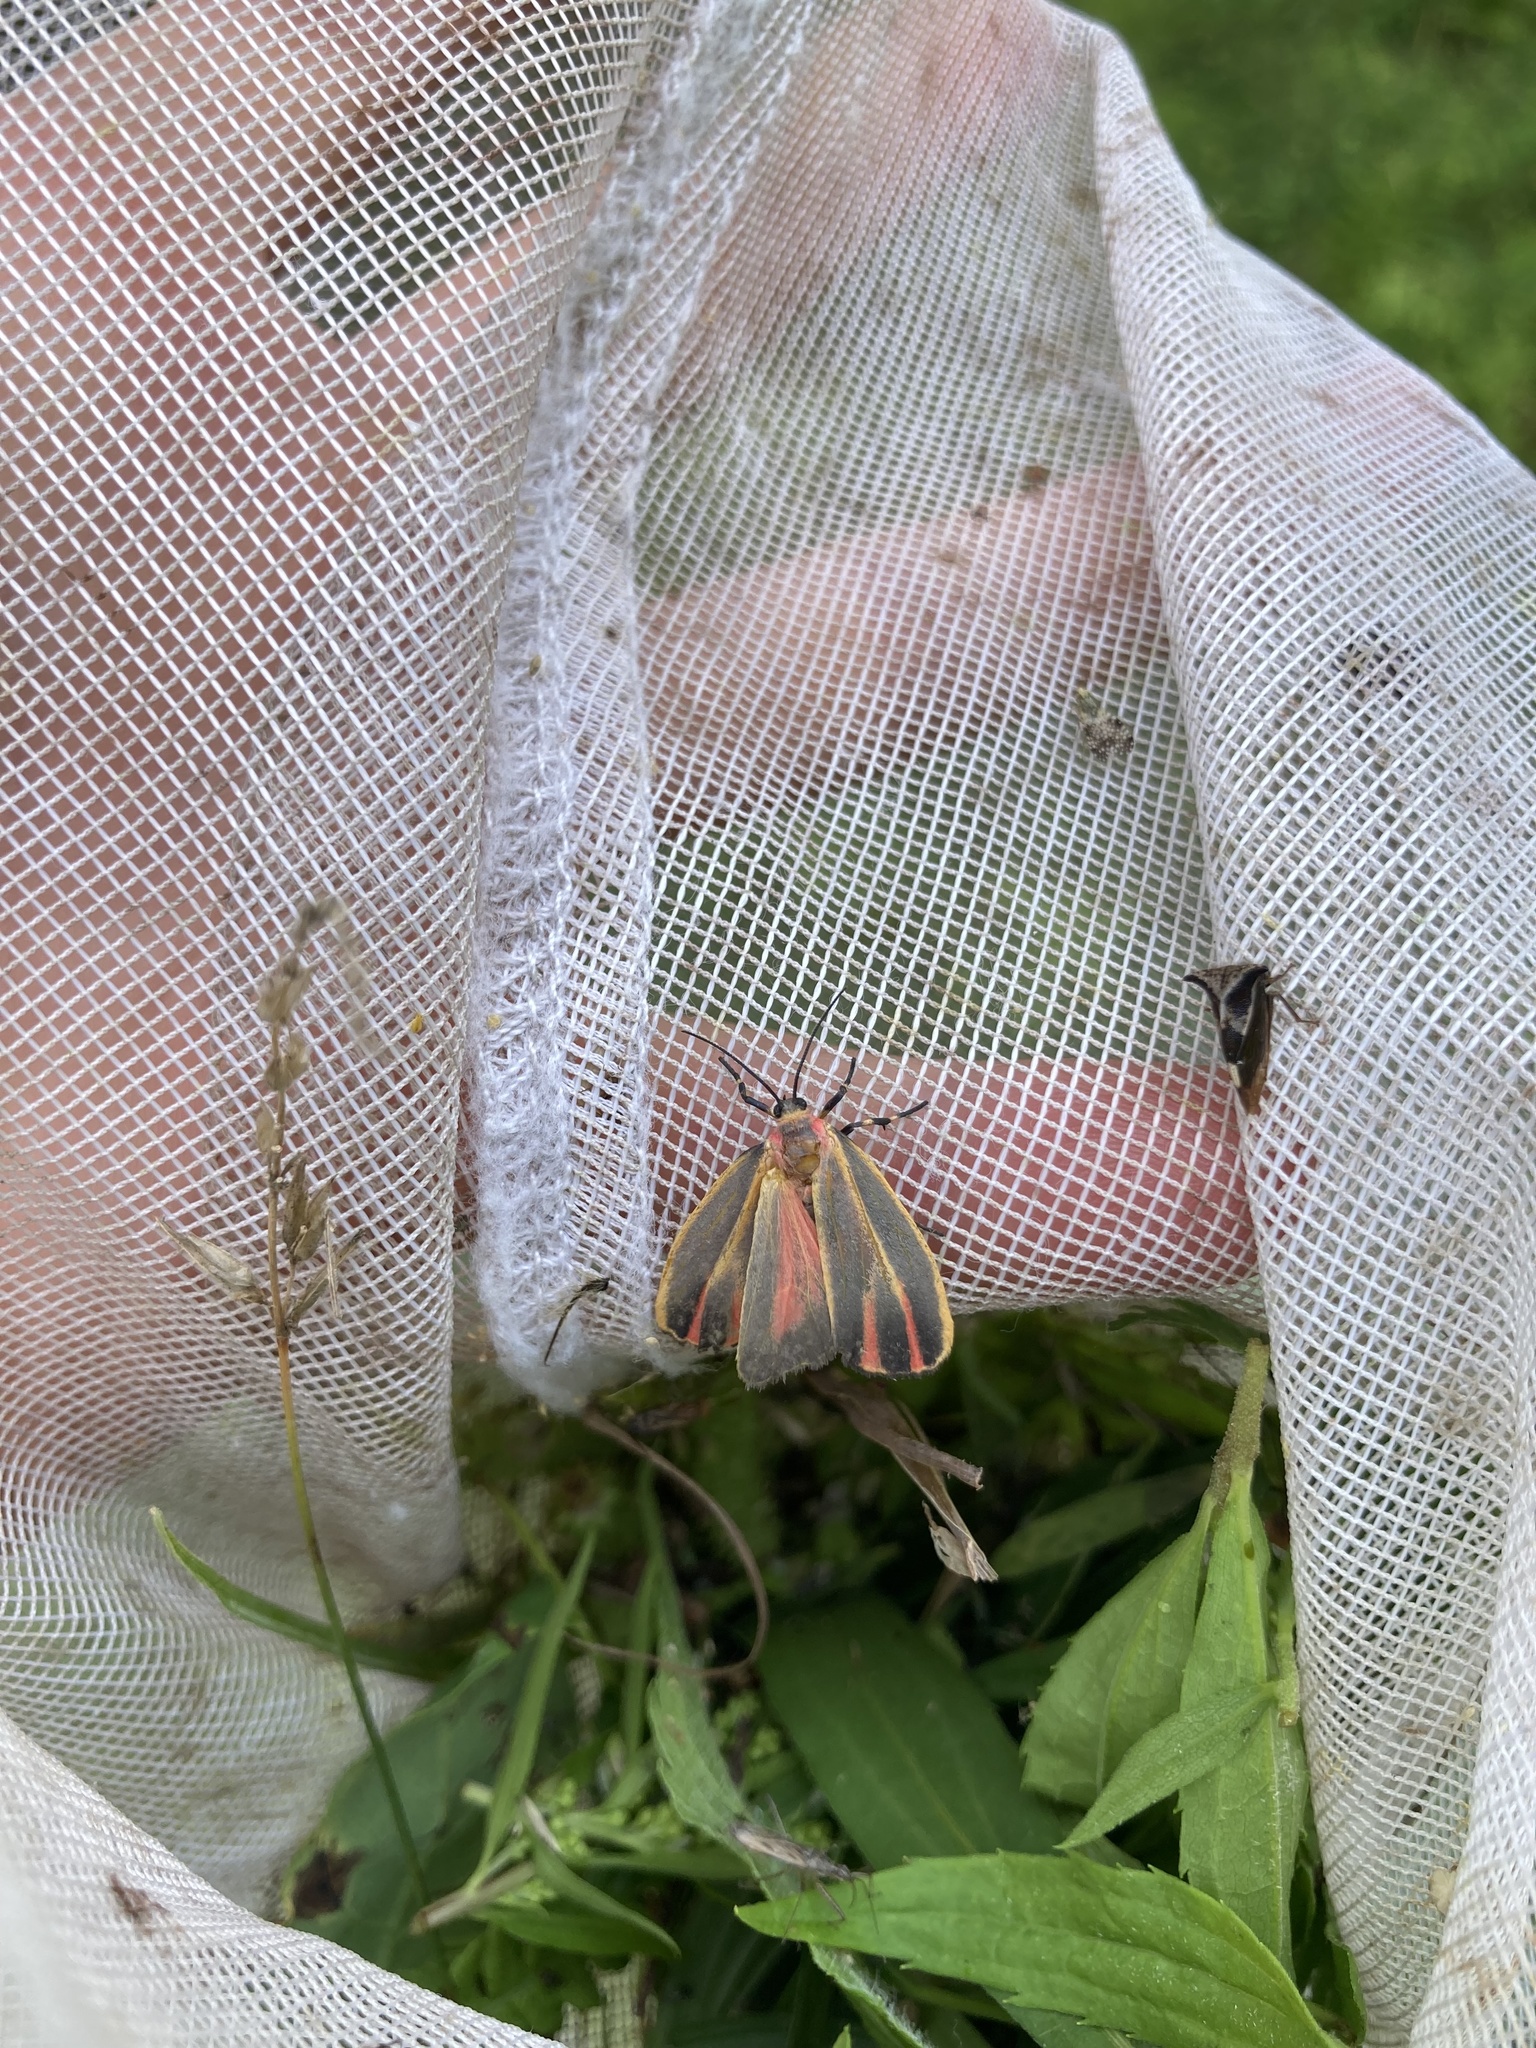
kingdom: Animalia
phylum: Arthropoda
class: Insecta
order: Lepidoptera
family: Erebidae
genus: Hypoprepia
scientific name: Hypoprepia fucosa
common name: Painted lichen moth
